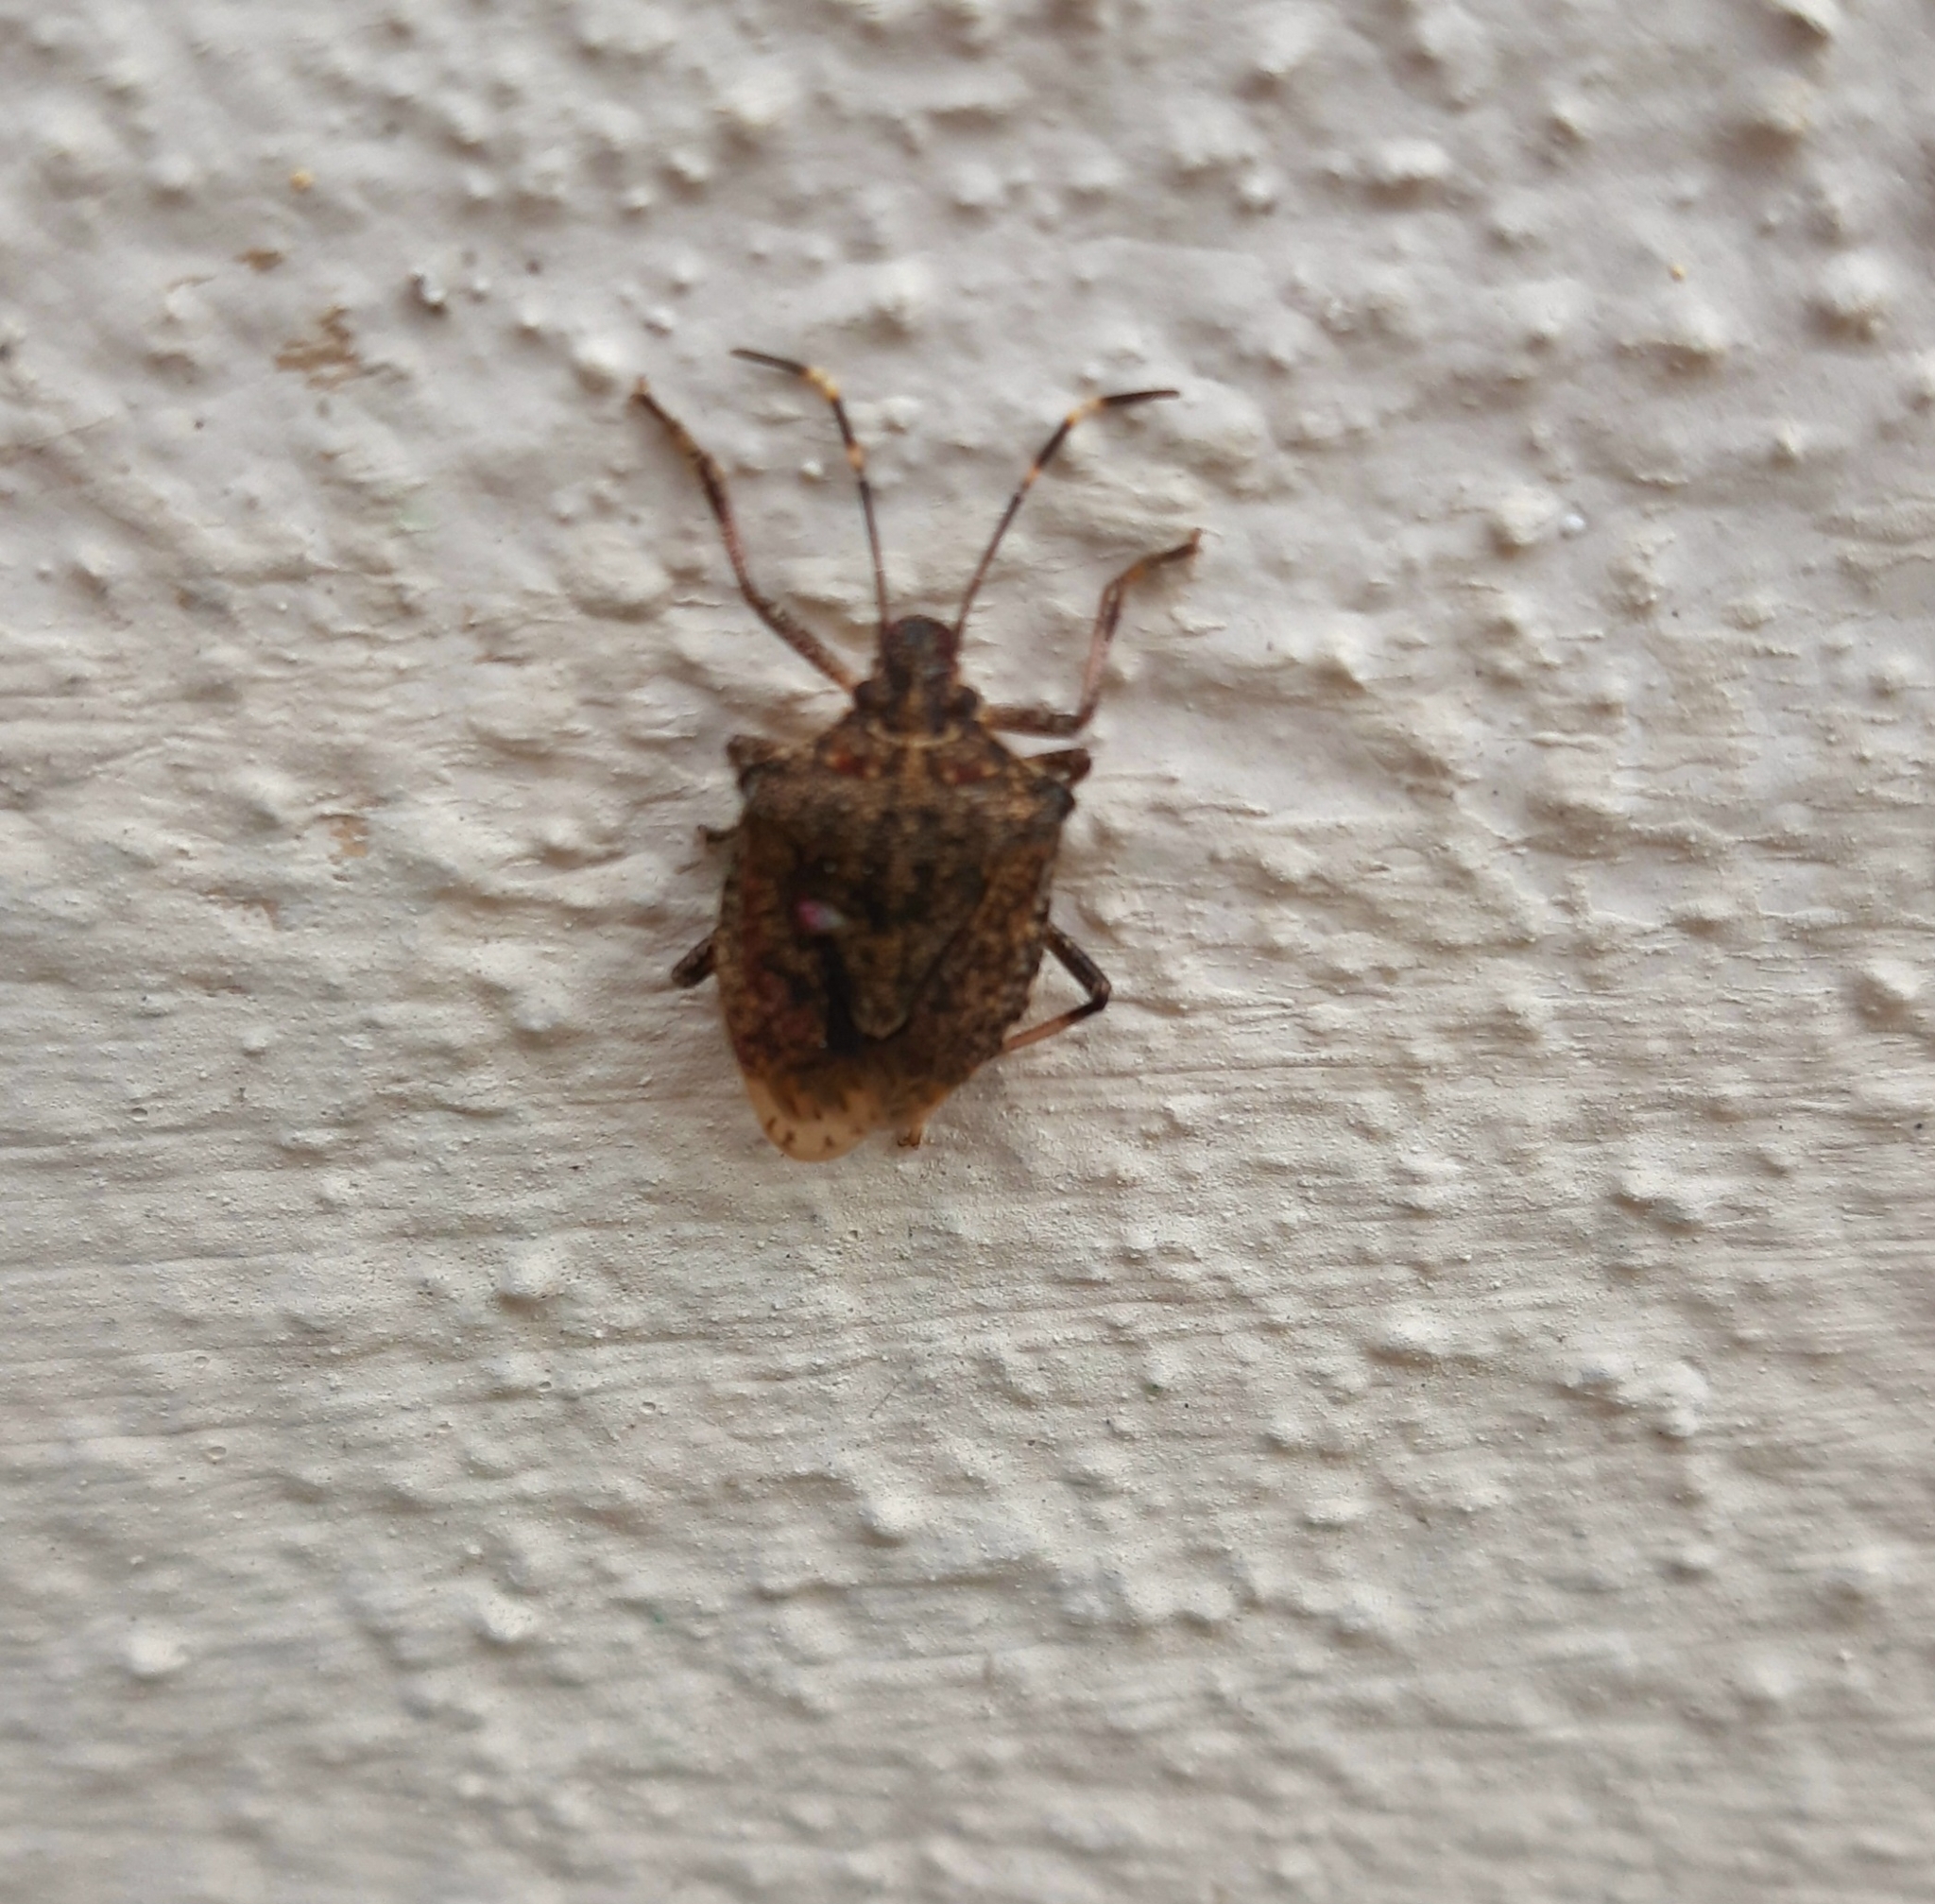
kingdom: Animalia
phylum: Arthropoda
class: Insecta
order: Hemiptera
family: Pentatomidae
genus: Halyomorpha
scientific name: Halyomorpha halys
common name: Brown marmorated stink bug
